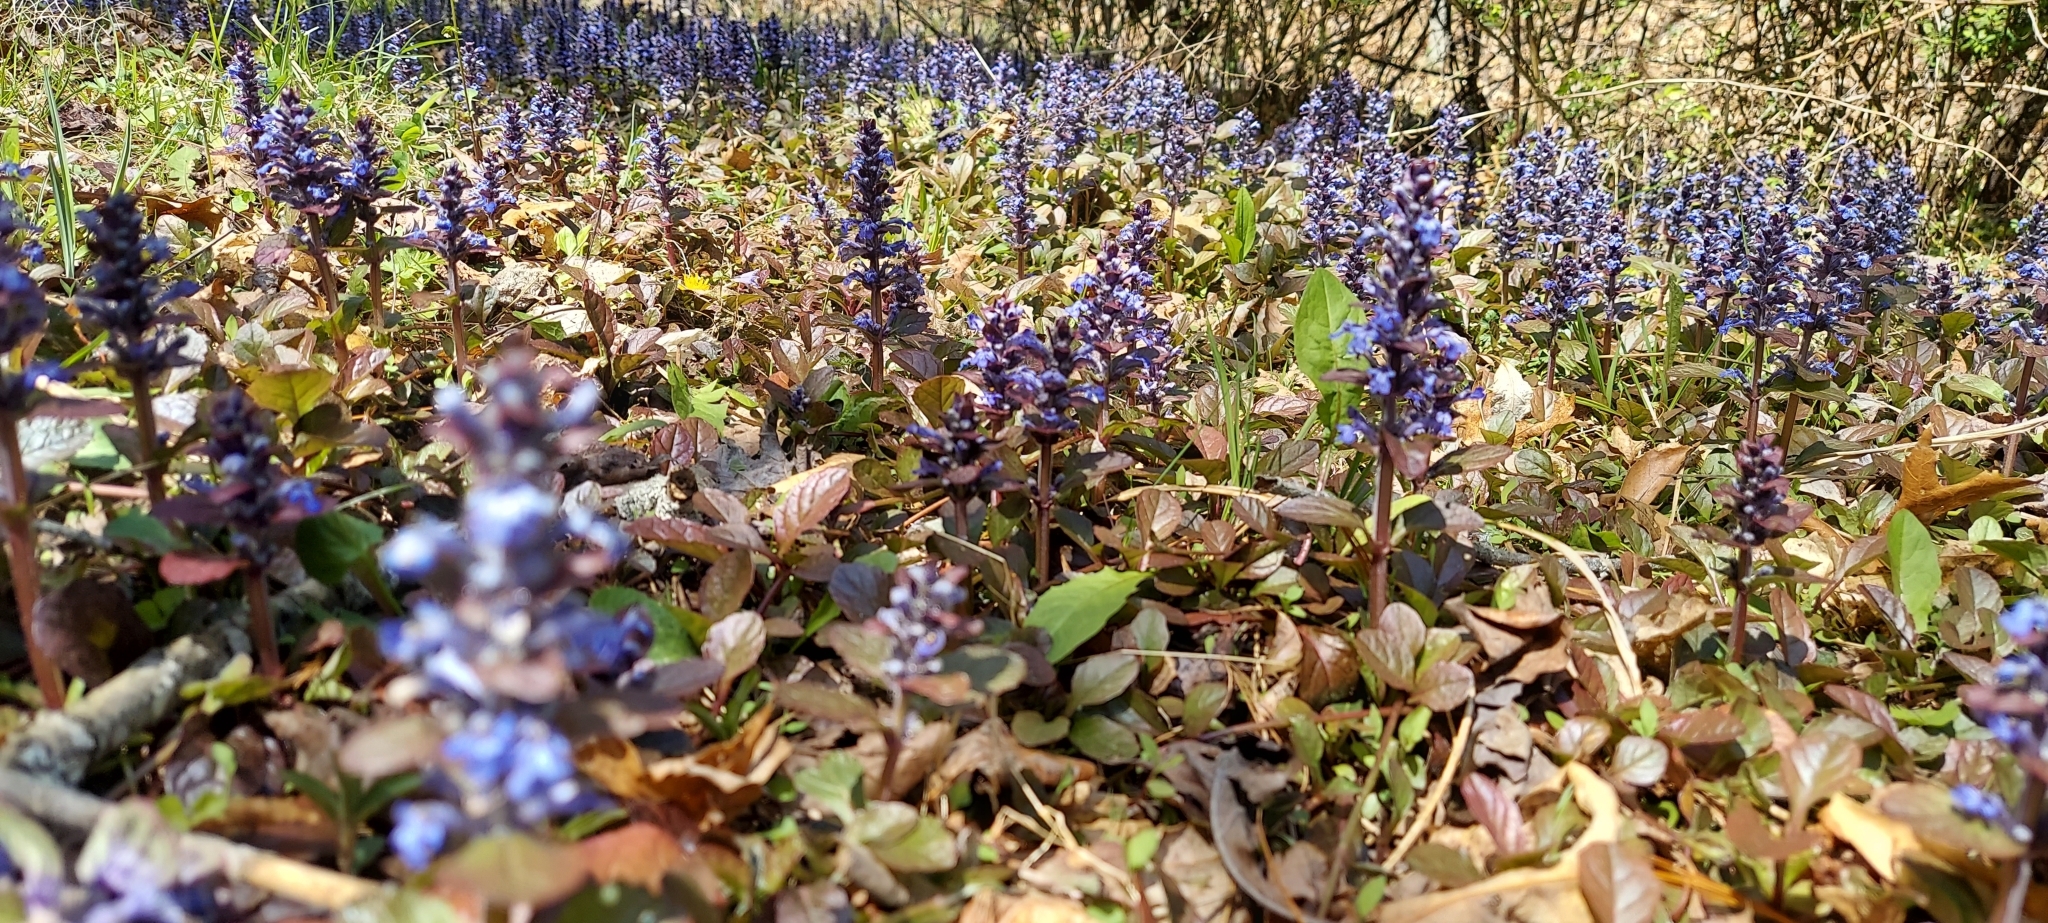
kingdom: Plantae
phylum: Tracheophyta
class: Magnoliopsida
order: Lamiales
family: Lamiaceae
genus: Ajuga
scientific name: Ajuga reptans
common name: Bugle
